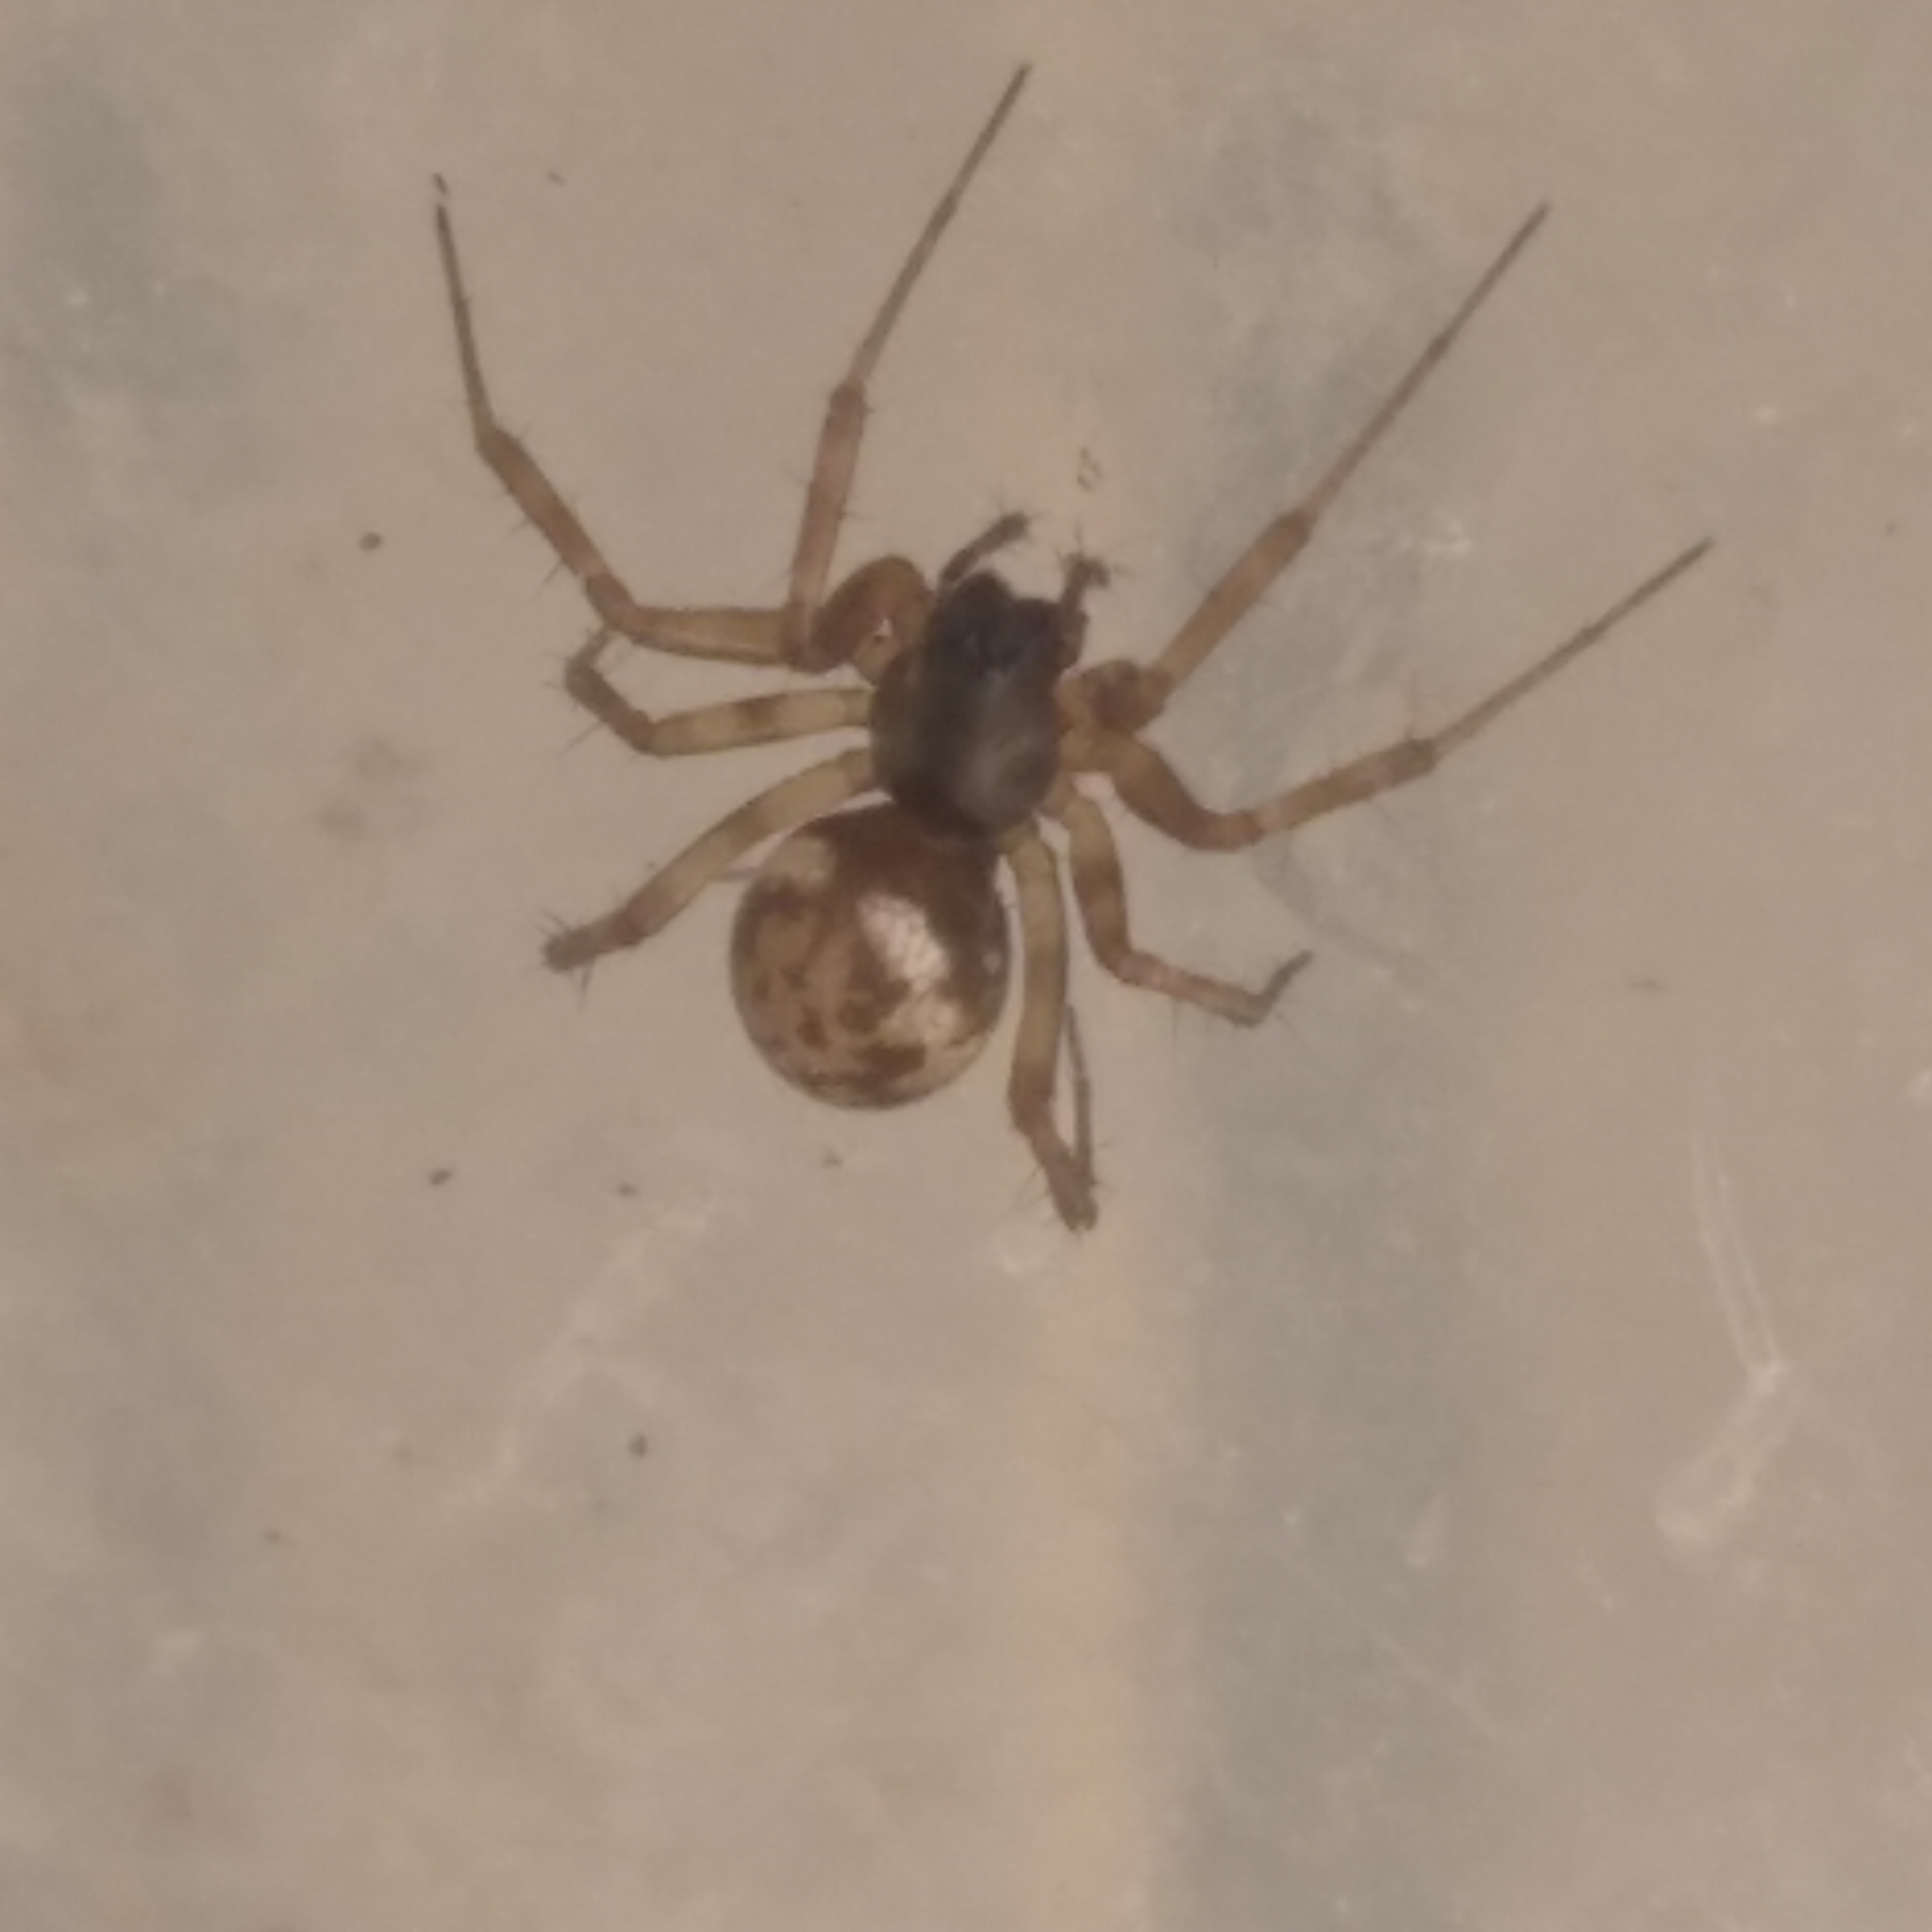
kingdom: Animalia
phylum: Arthropoda
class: Arachnida
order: Araneae
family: Linyphiidae
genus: Neriene
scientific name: Neriene clathrata
